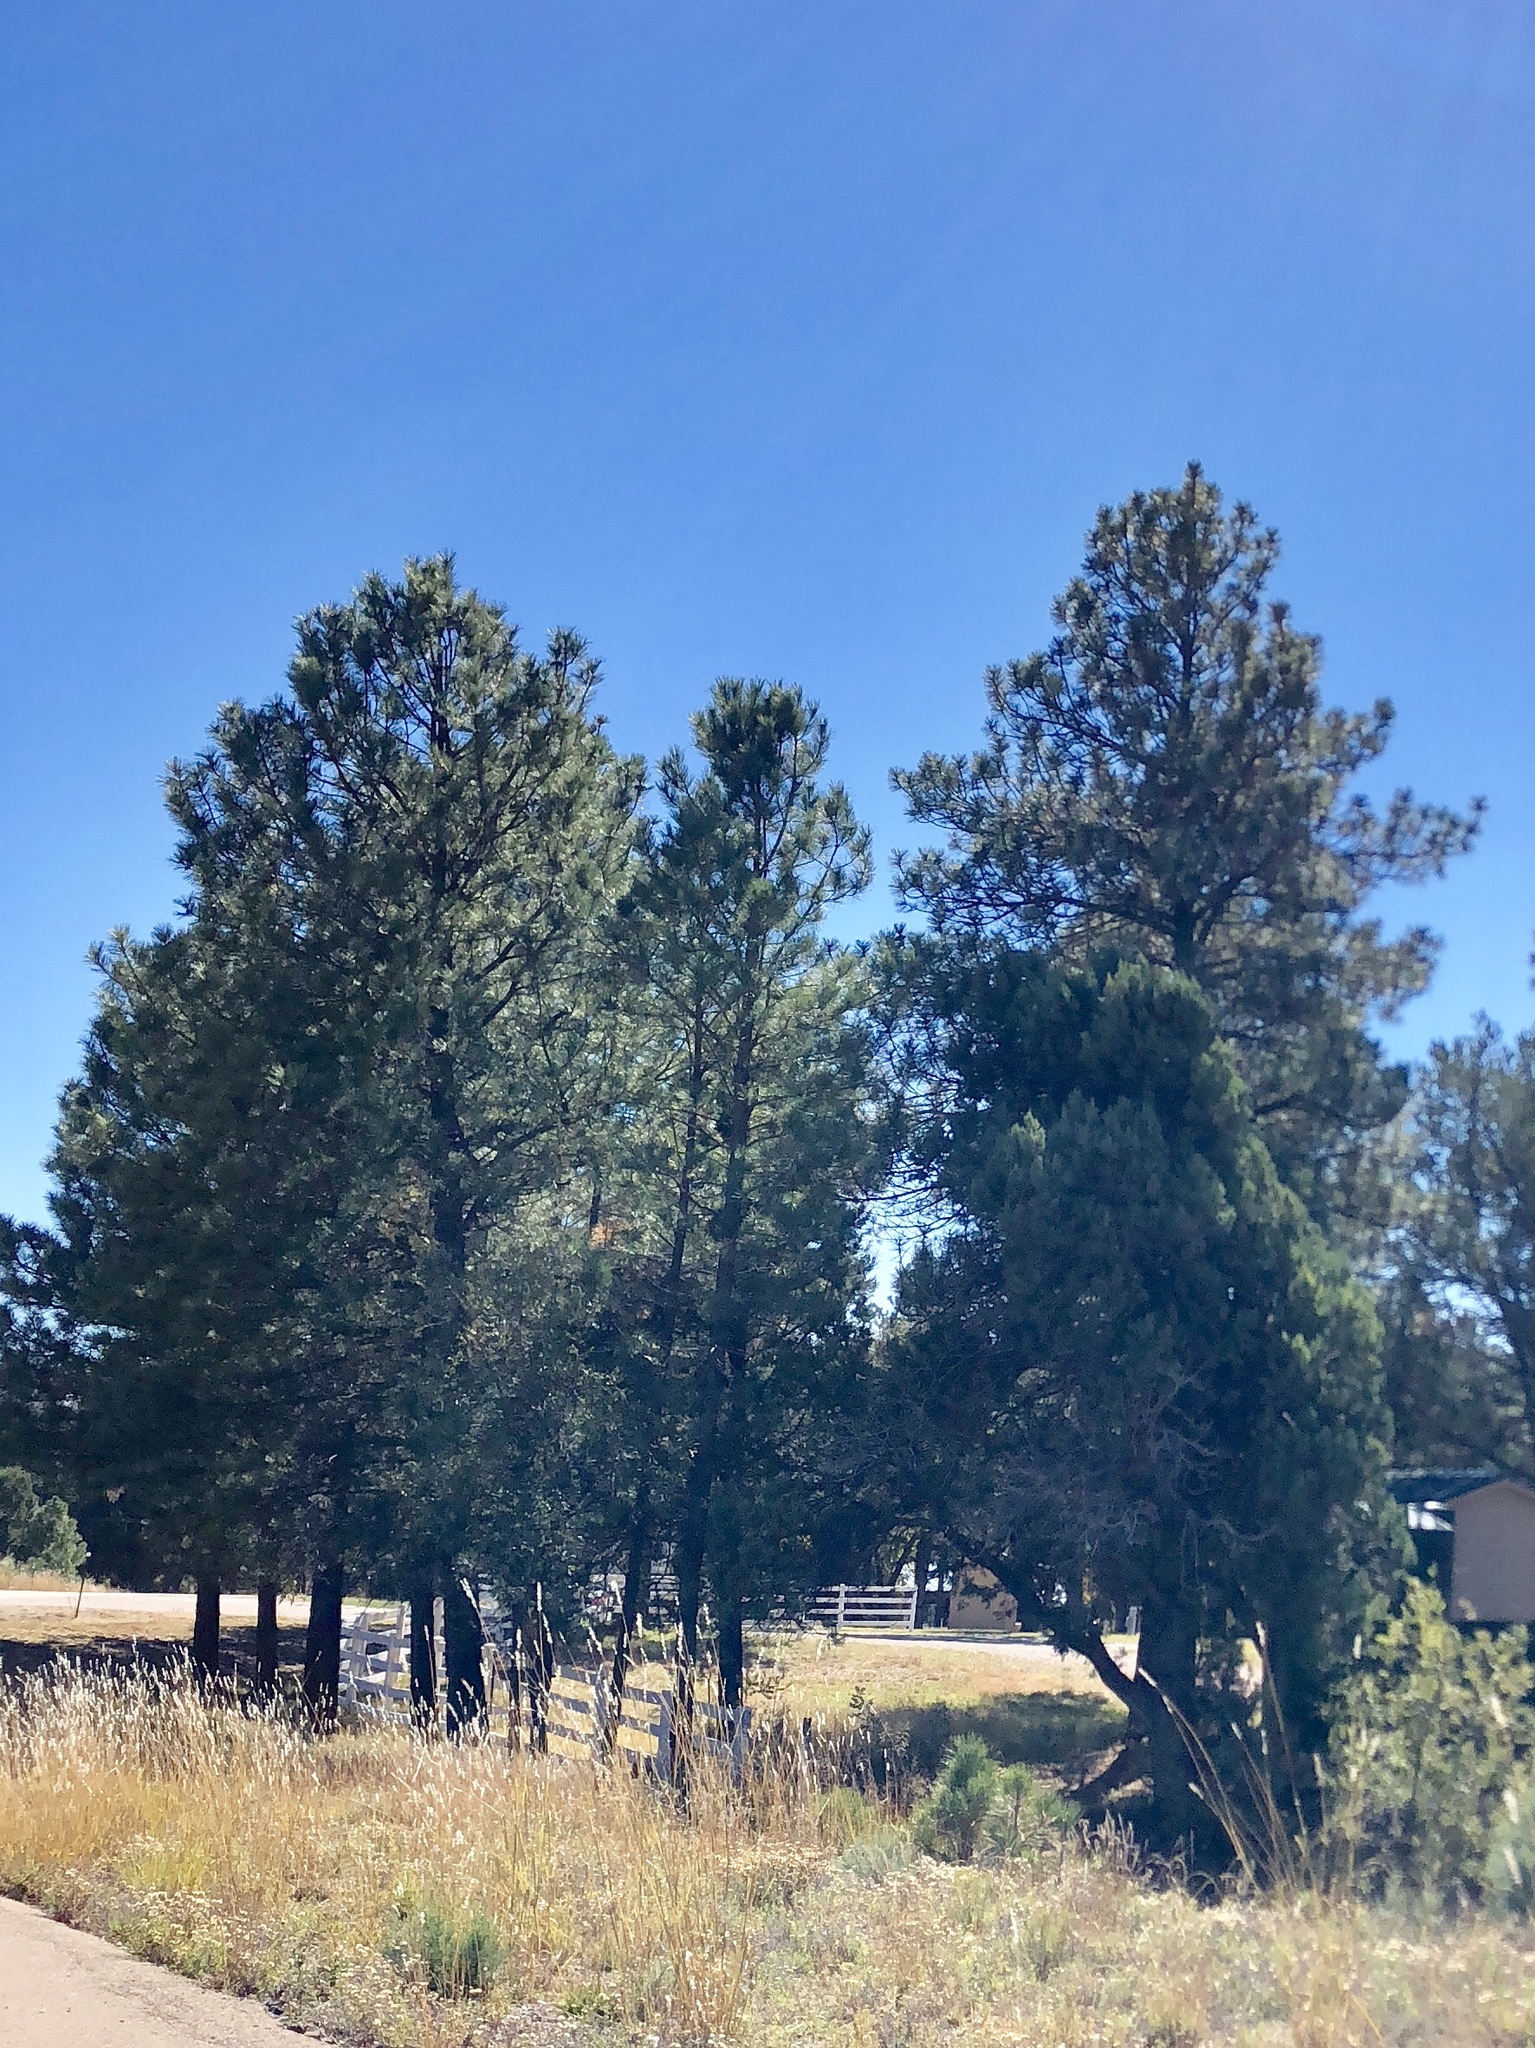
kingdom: Plantae
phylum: Tracheophyta
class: Pinopsida
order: Pinales
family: Pinaceae
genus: Pinus
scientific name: Pinus ponderosa
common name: Western yellow-pine
